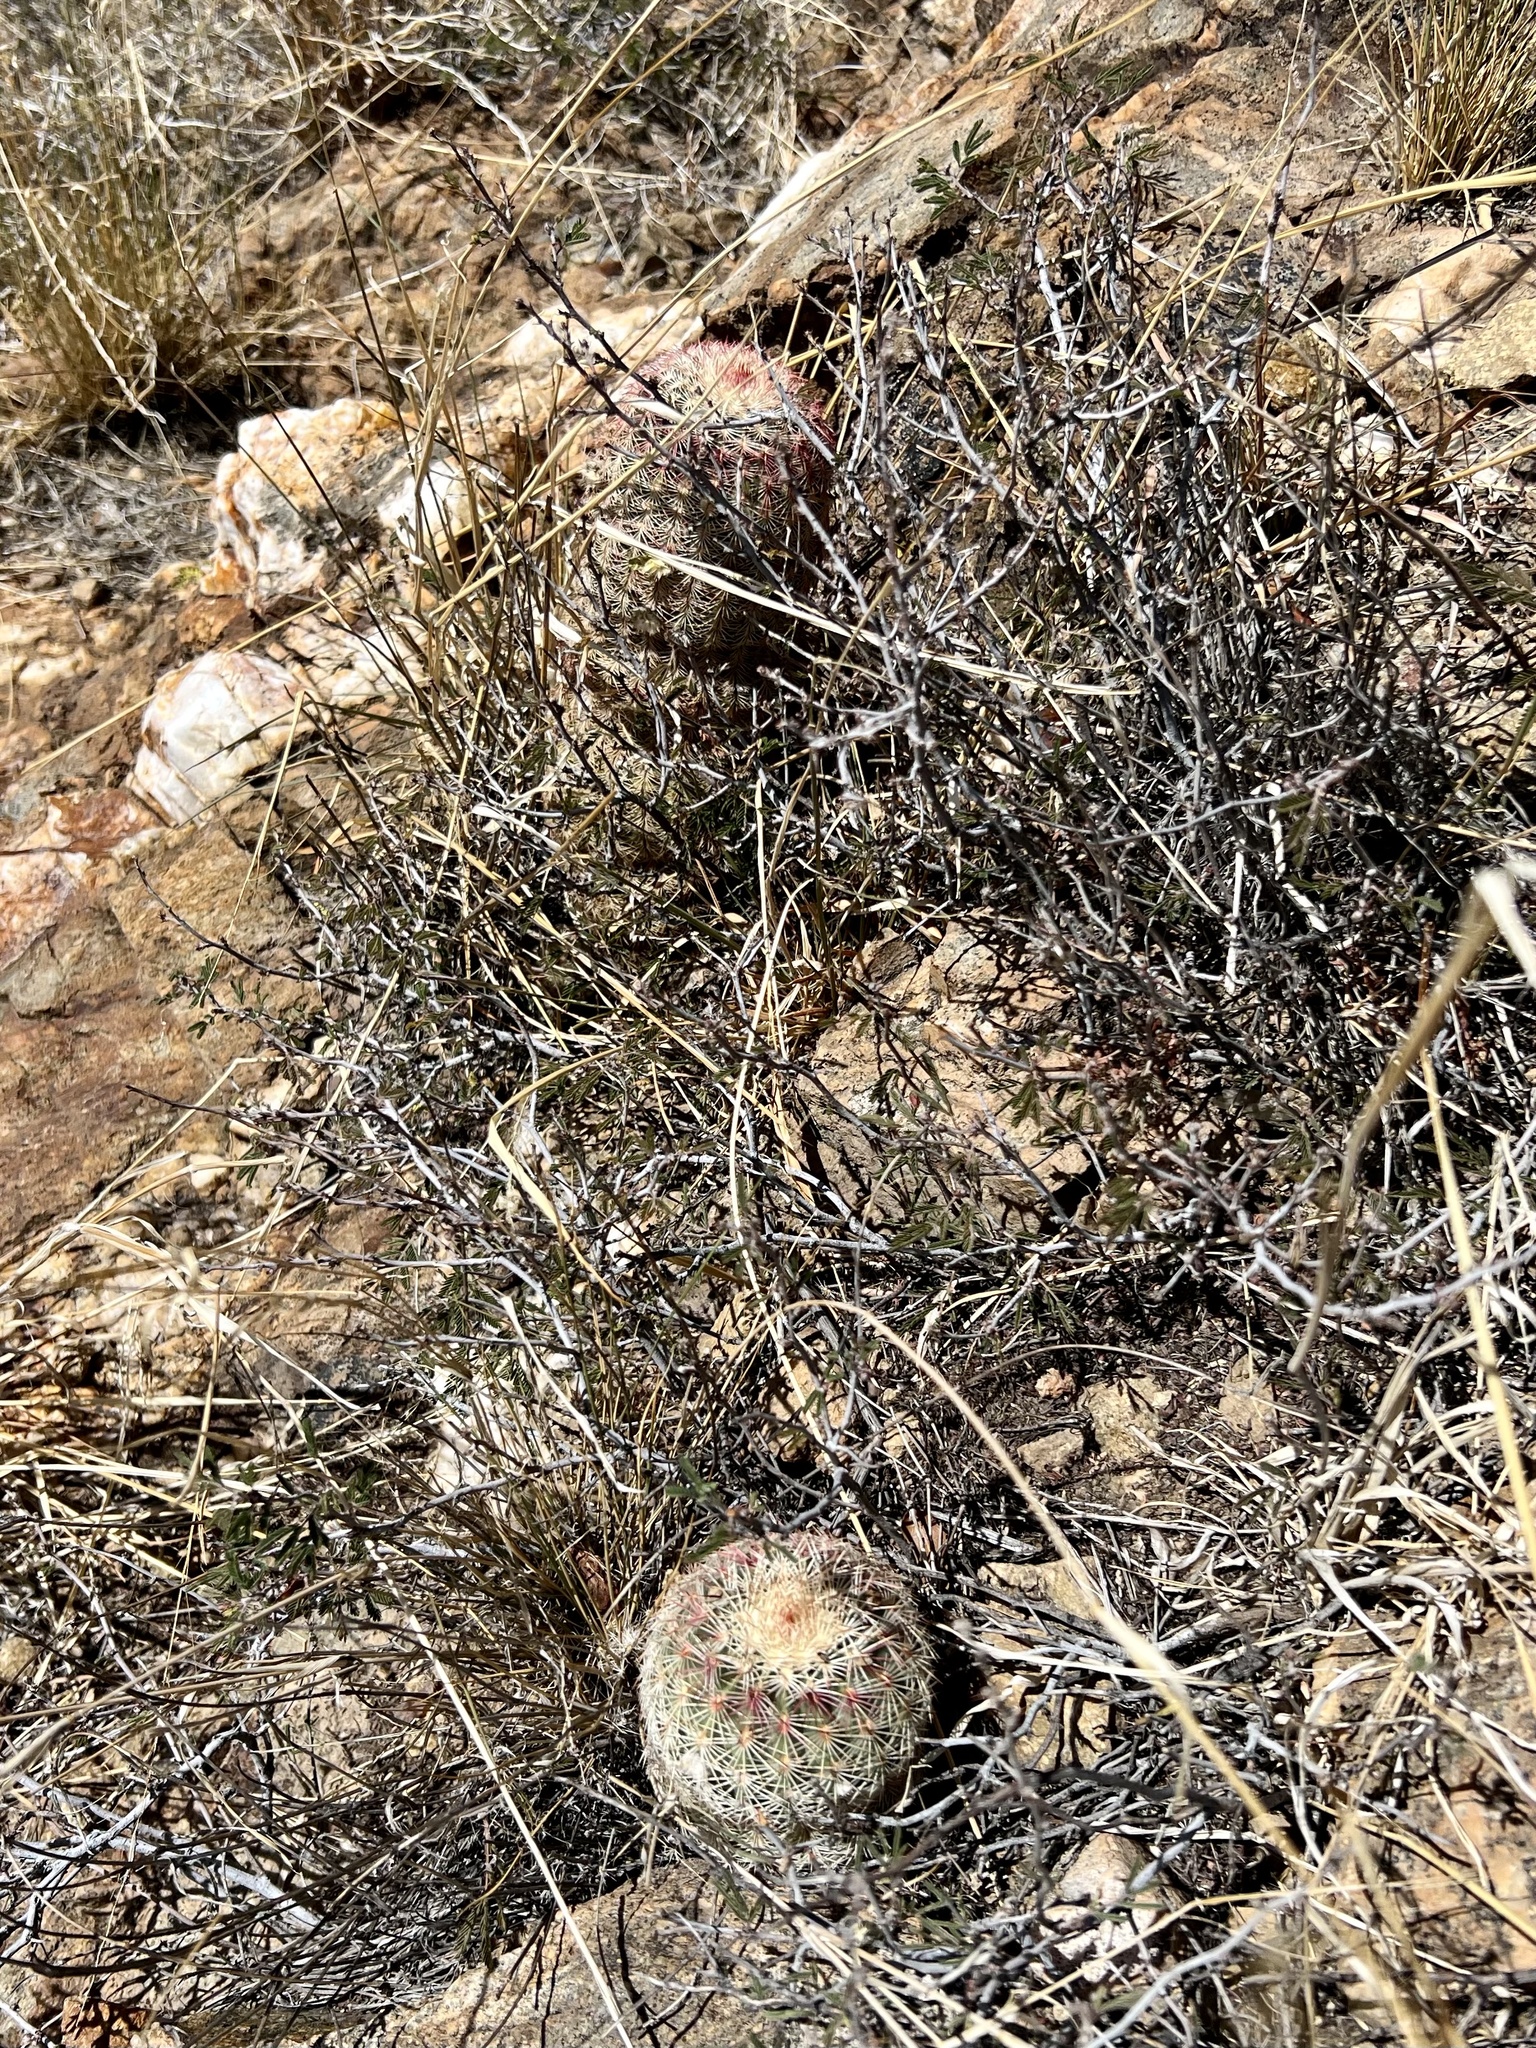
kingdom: Plantae
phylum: Tracheophyta
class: Magnoliopsida
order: Caryophyllales
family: Cactaceae
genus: Echinocereus
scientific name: Echinocereus rigidissimus
